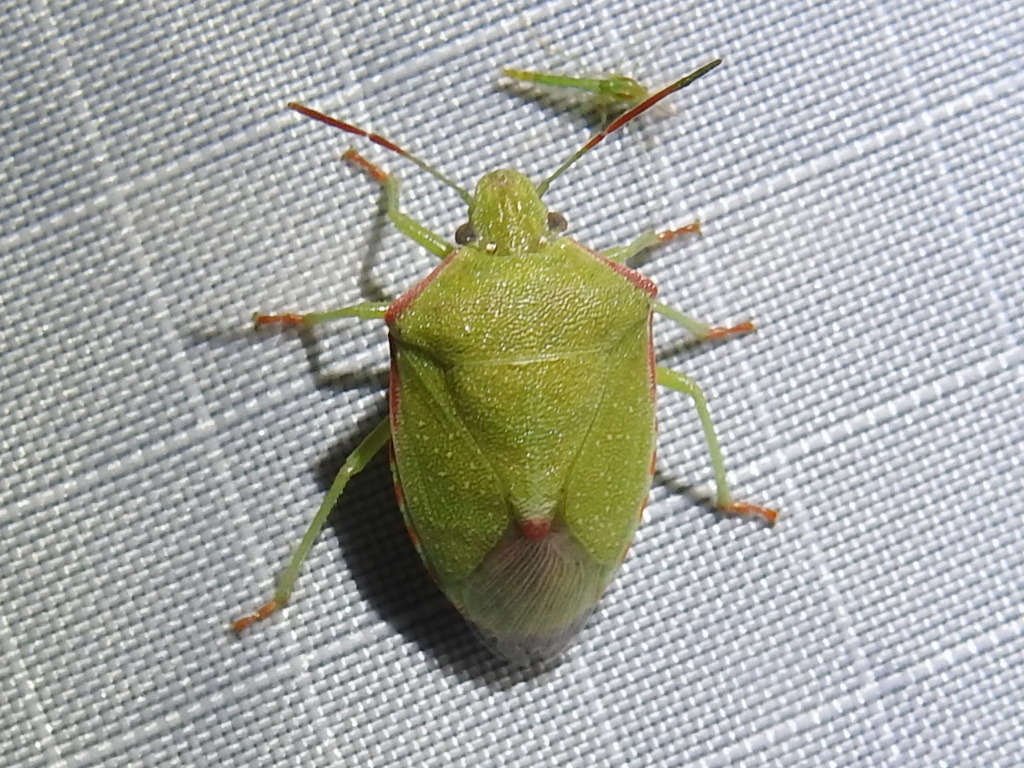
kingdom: Animalia
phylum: Arthropoda
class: Insecta
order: Hemiptera
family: Pentatomidae
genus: Thyanta
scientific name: Thyanta custator
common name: Stink bug
